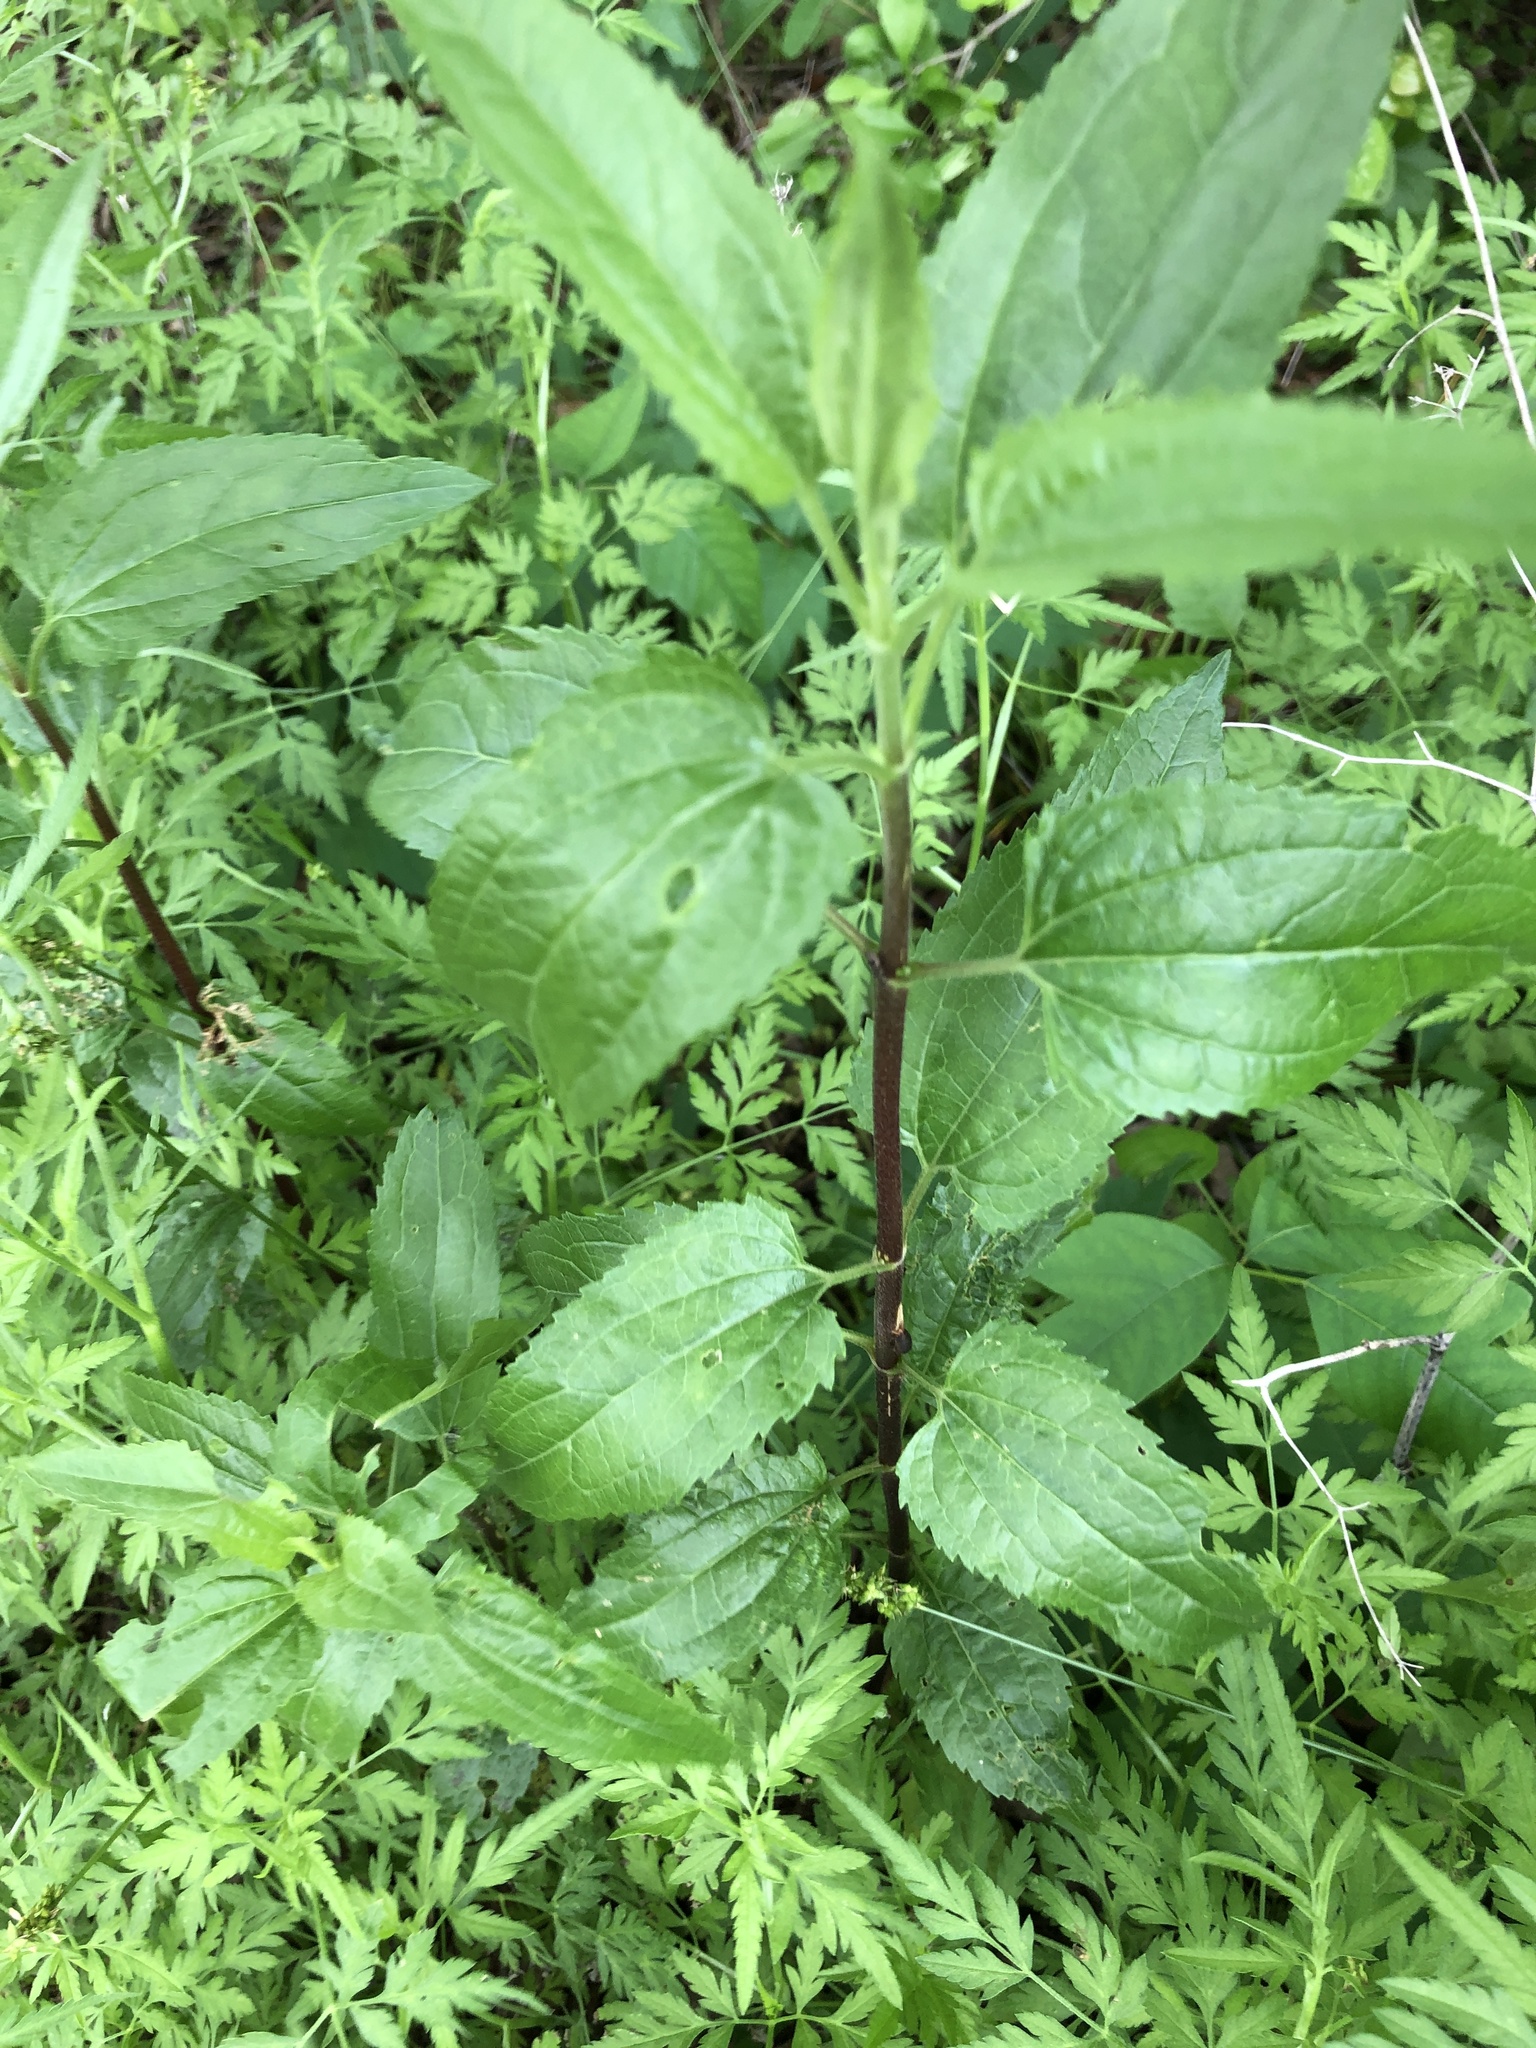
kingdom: Plantae
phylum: Tracheophyta
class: Magnoliopsida
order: Asterales
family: Asteraceae
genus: Eupatorium
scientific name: Eupatorium serotinum
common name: Late boneset
